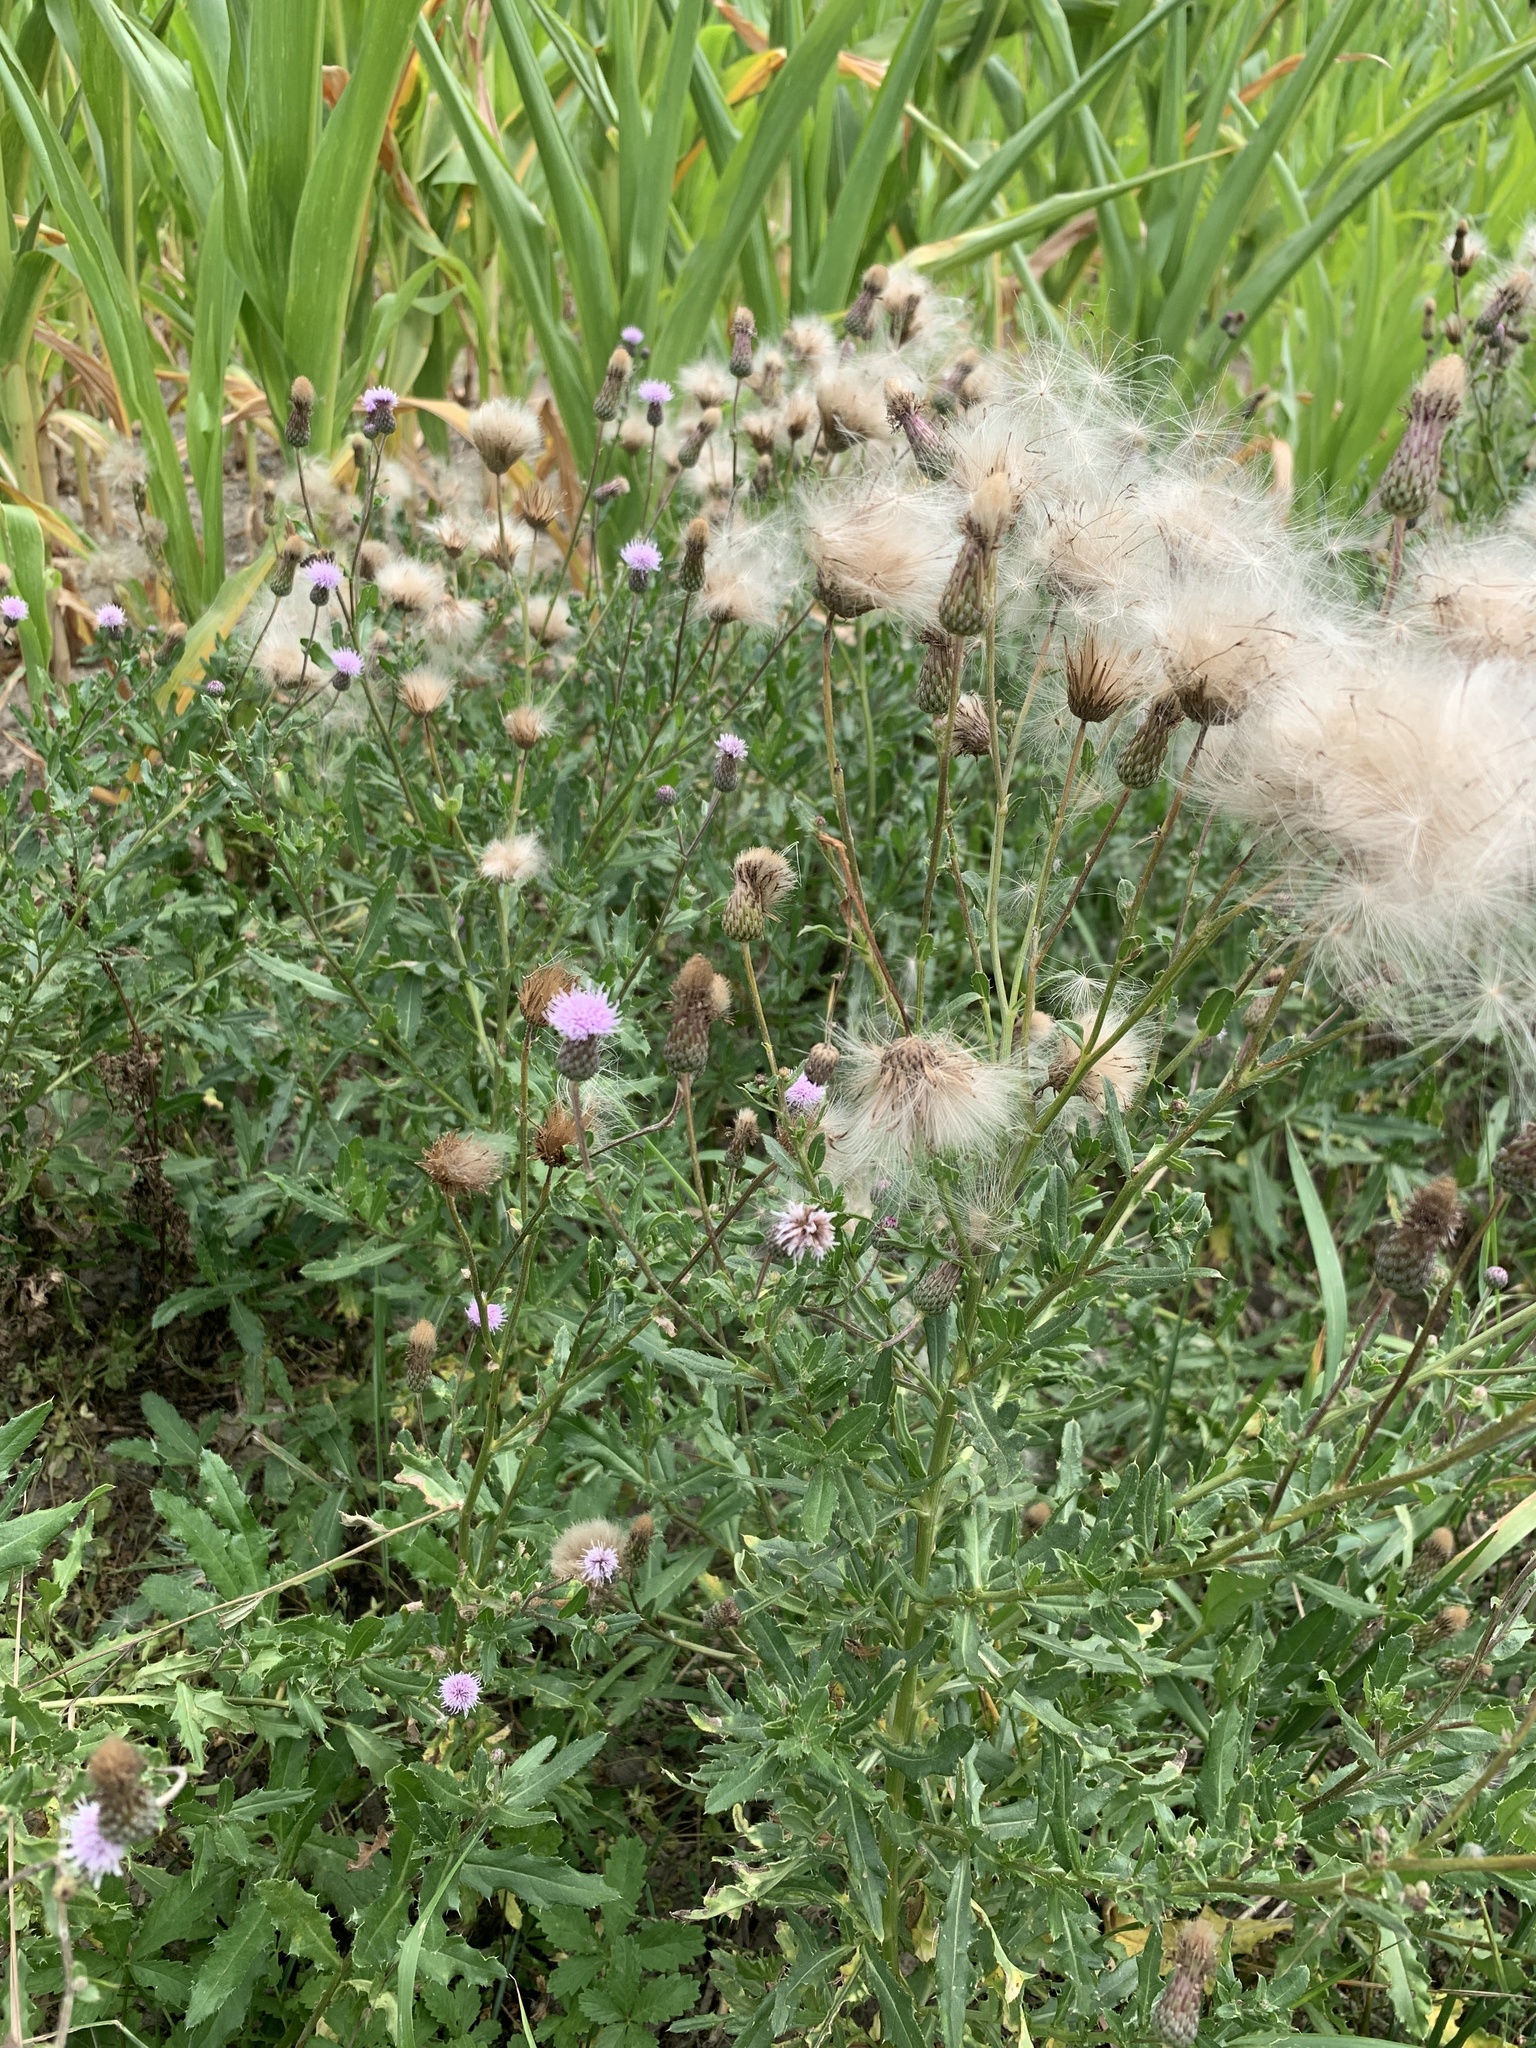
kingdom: Plantae
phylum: Tracheophyta
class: Magnoliopsida
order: Asterales
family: Asteraceae
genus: Tripleurospermum
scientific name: Tripleurospermum inodorum
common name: Scentless mayweed
